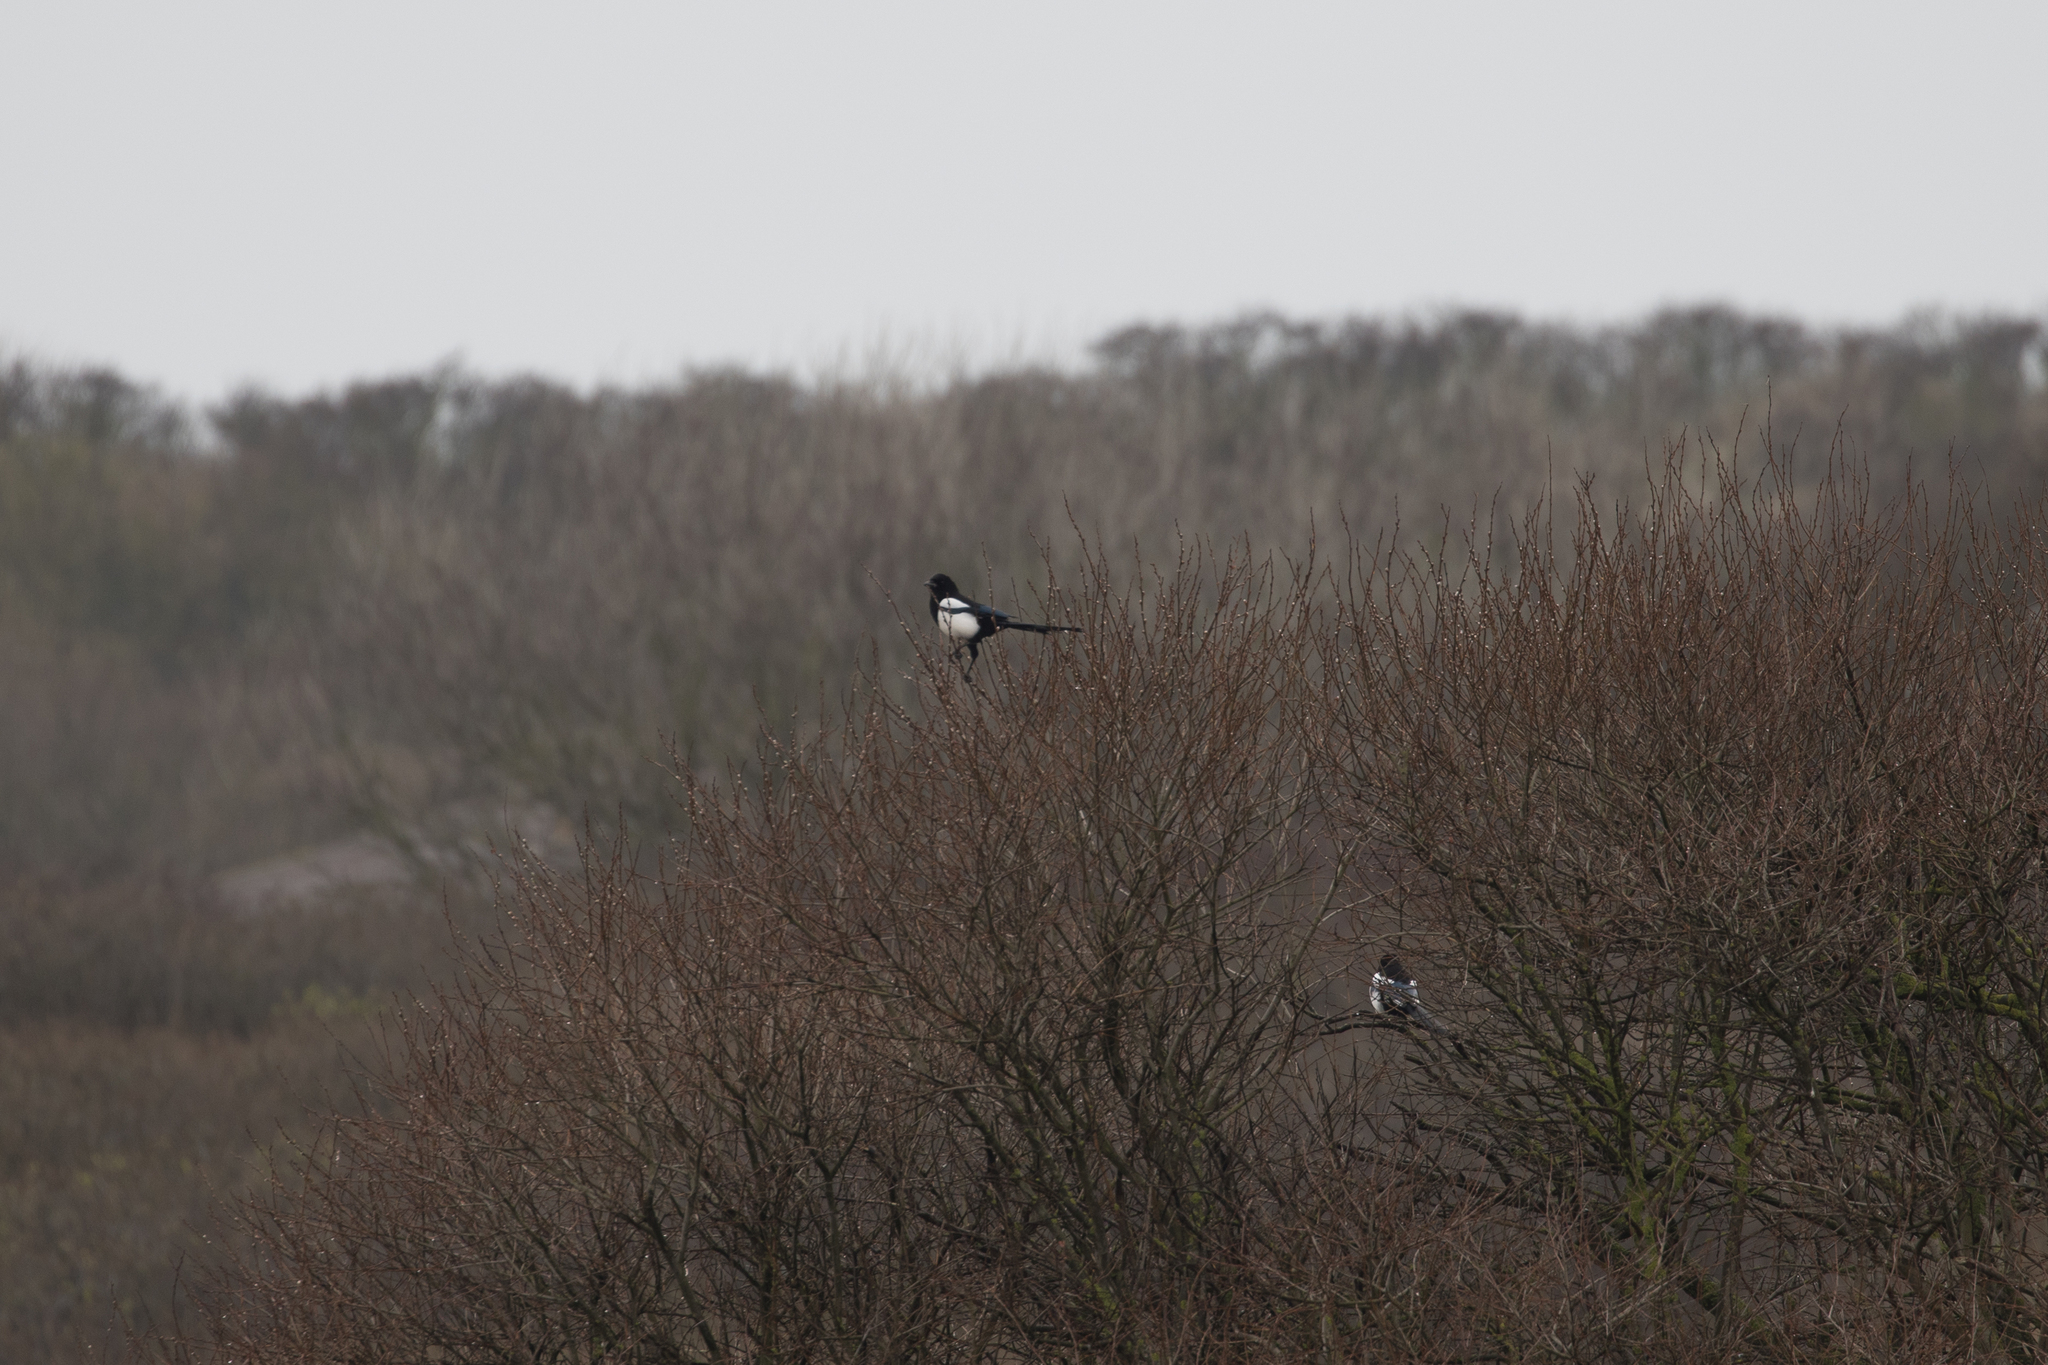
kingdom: Animalia
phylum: Chordata
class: Aves
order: Passeriformes
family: Corvidae
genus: Pica
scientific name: Pica pica
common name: Eurasian magpie
